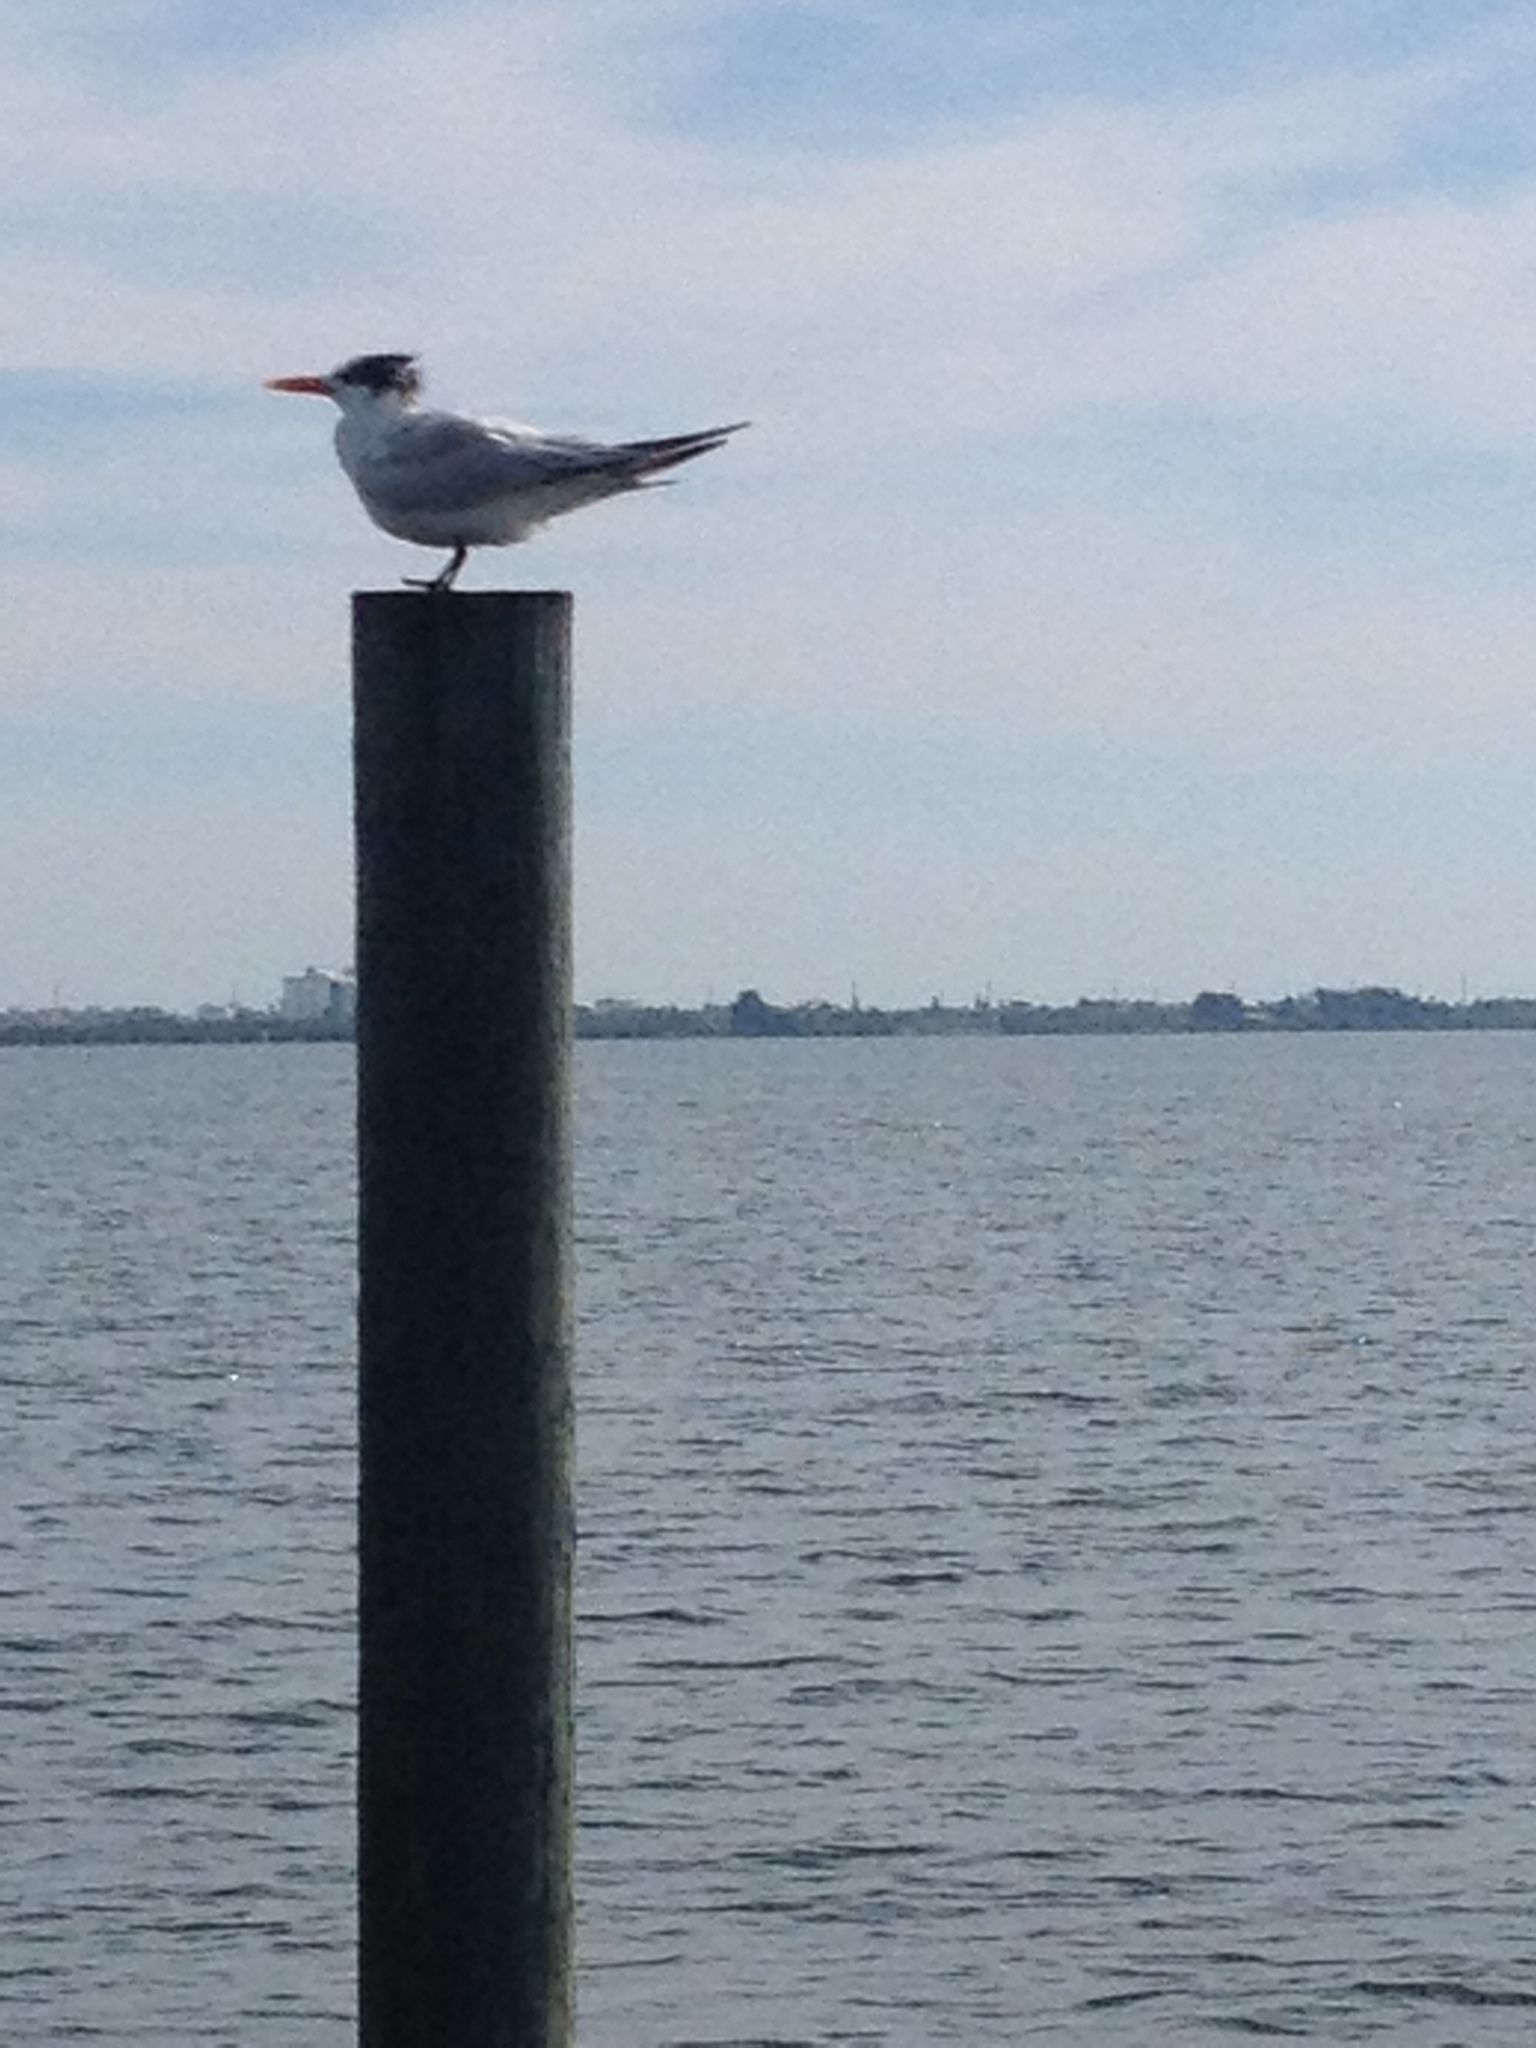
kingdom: Animalia
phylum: Chordata
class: Aves
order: Charadriiformes
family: Laridae
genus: Thalasseus
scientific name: Thalasseus maximus
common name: Royal tern
